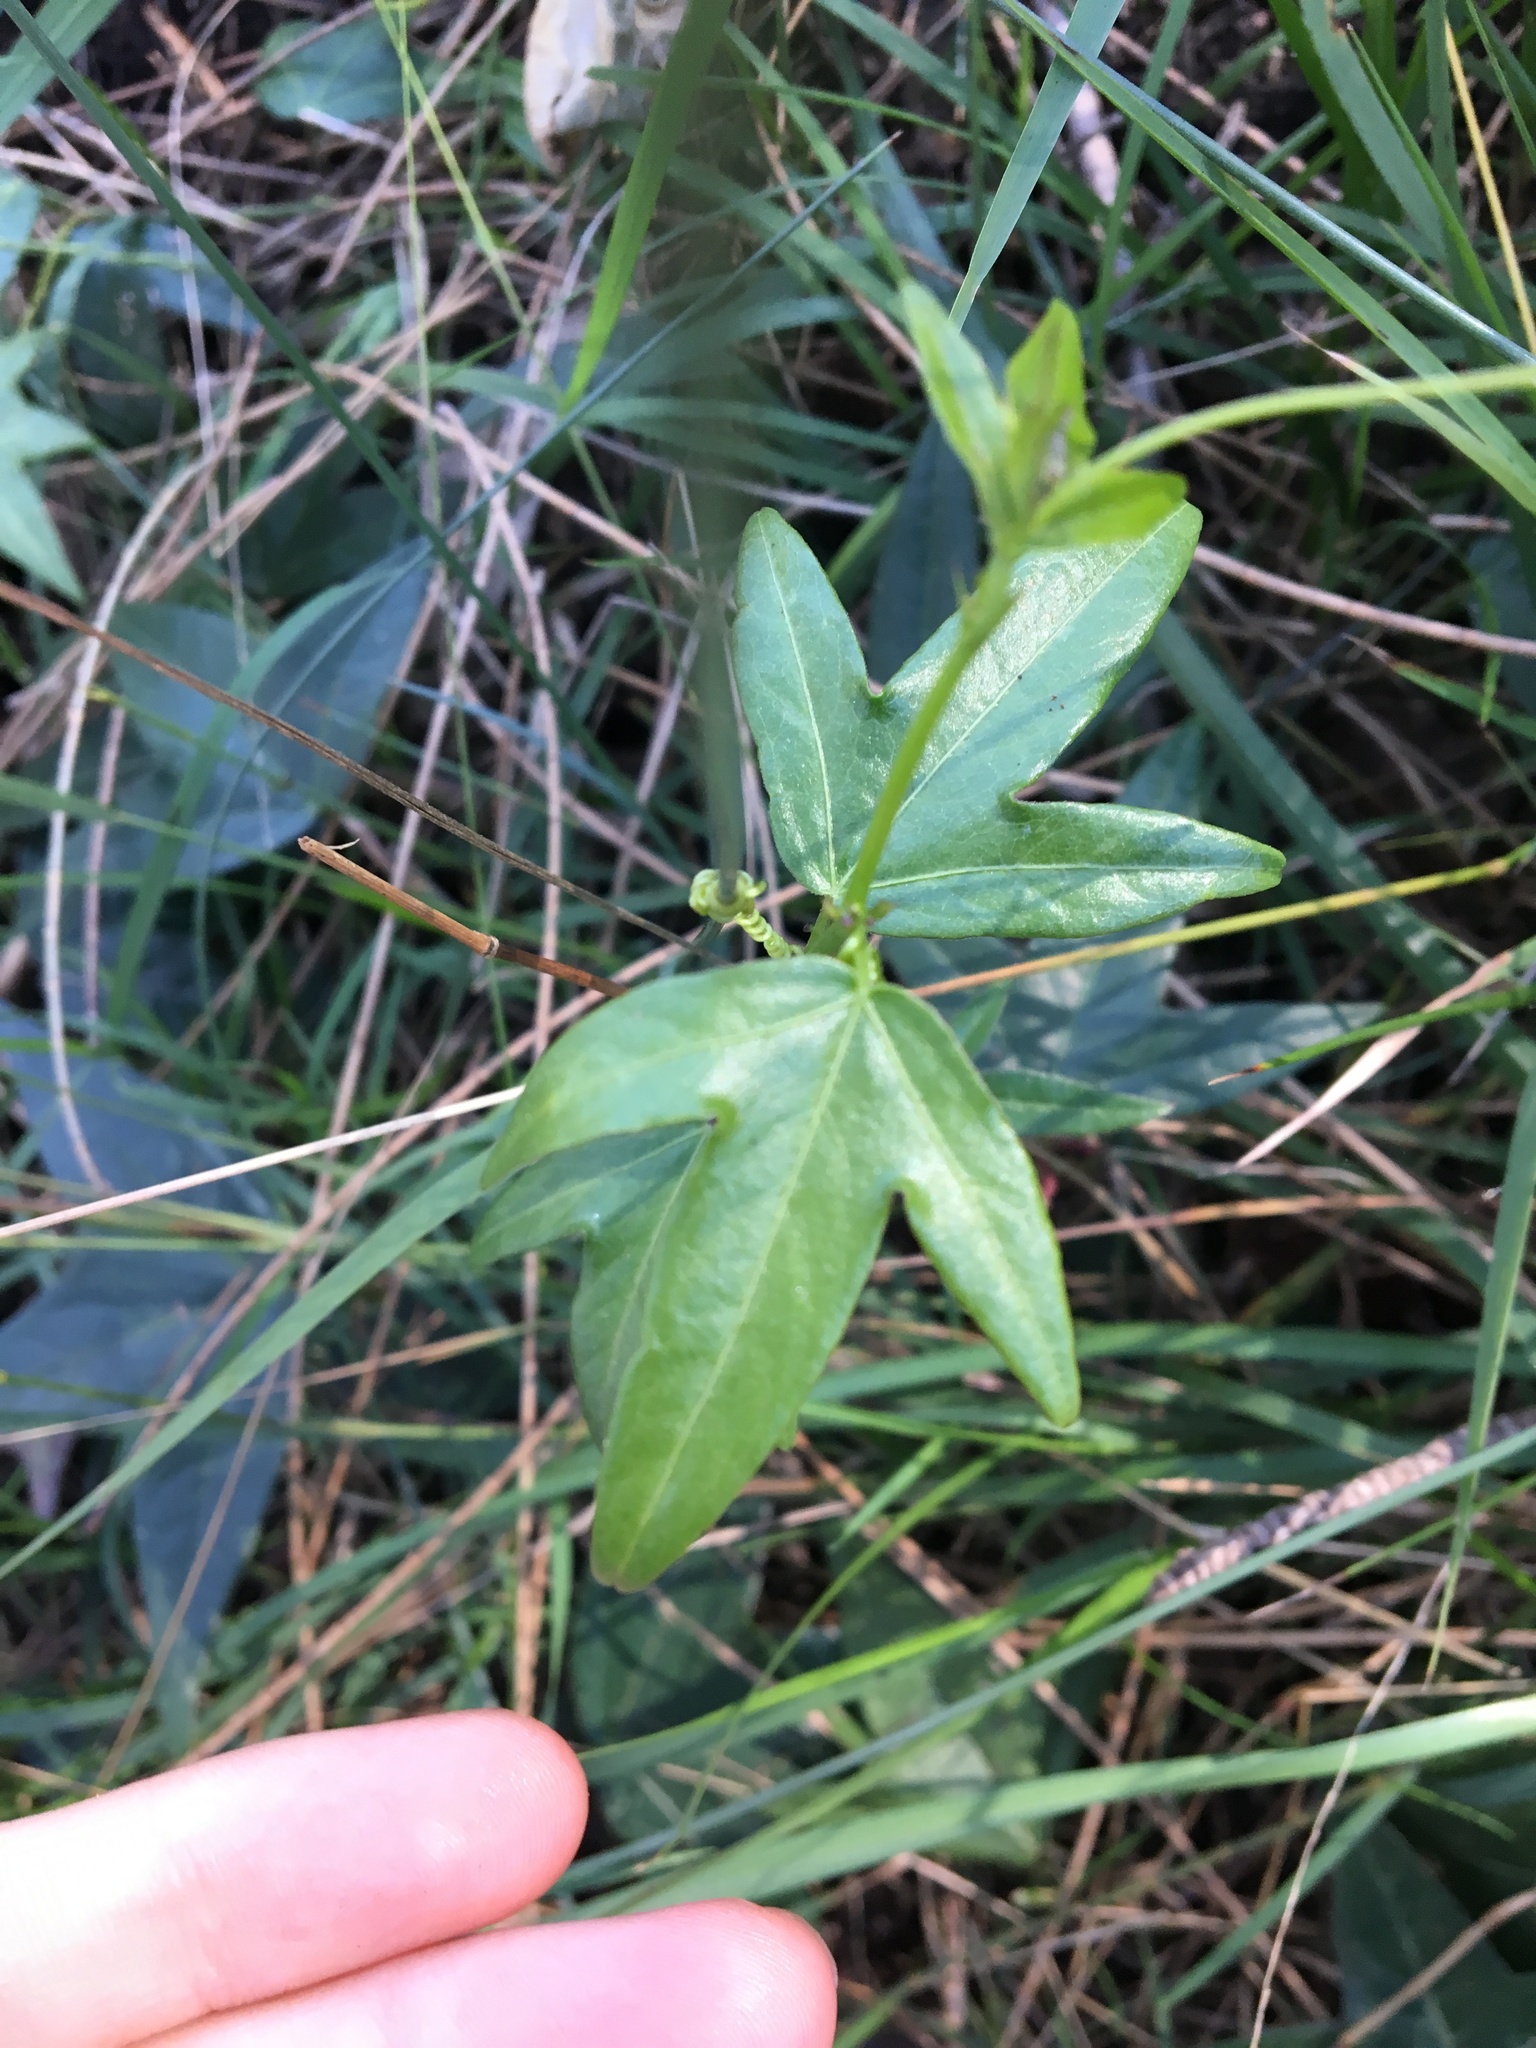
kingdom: Plantae
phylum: Tracheophyta
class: Magnoliopsida
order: Malpighiales
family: Passifloraceae
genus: Passiflora
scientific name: Passiflora suberosa
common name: Wild passionfruit
